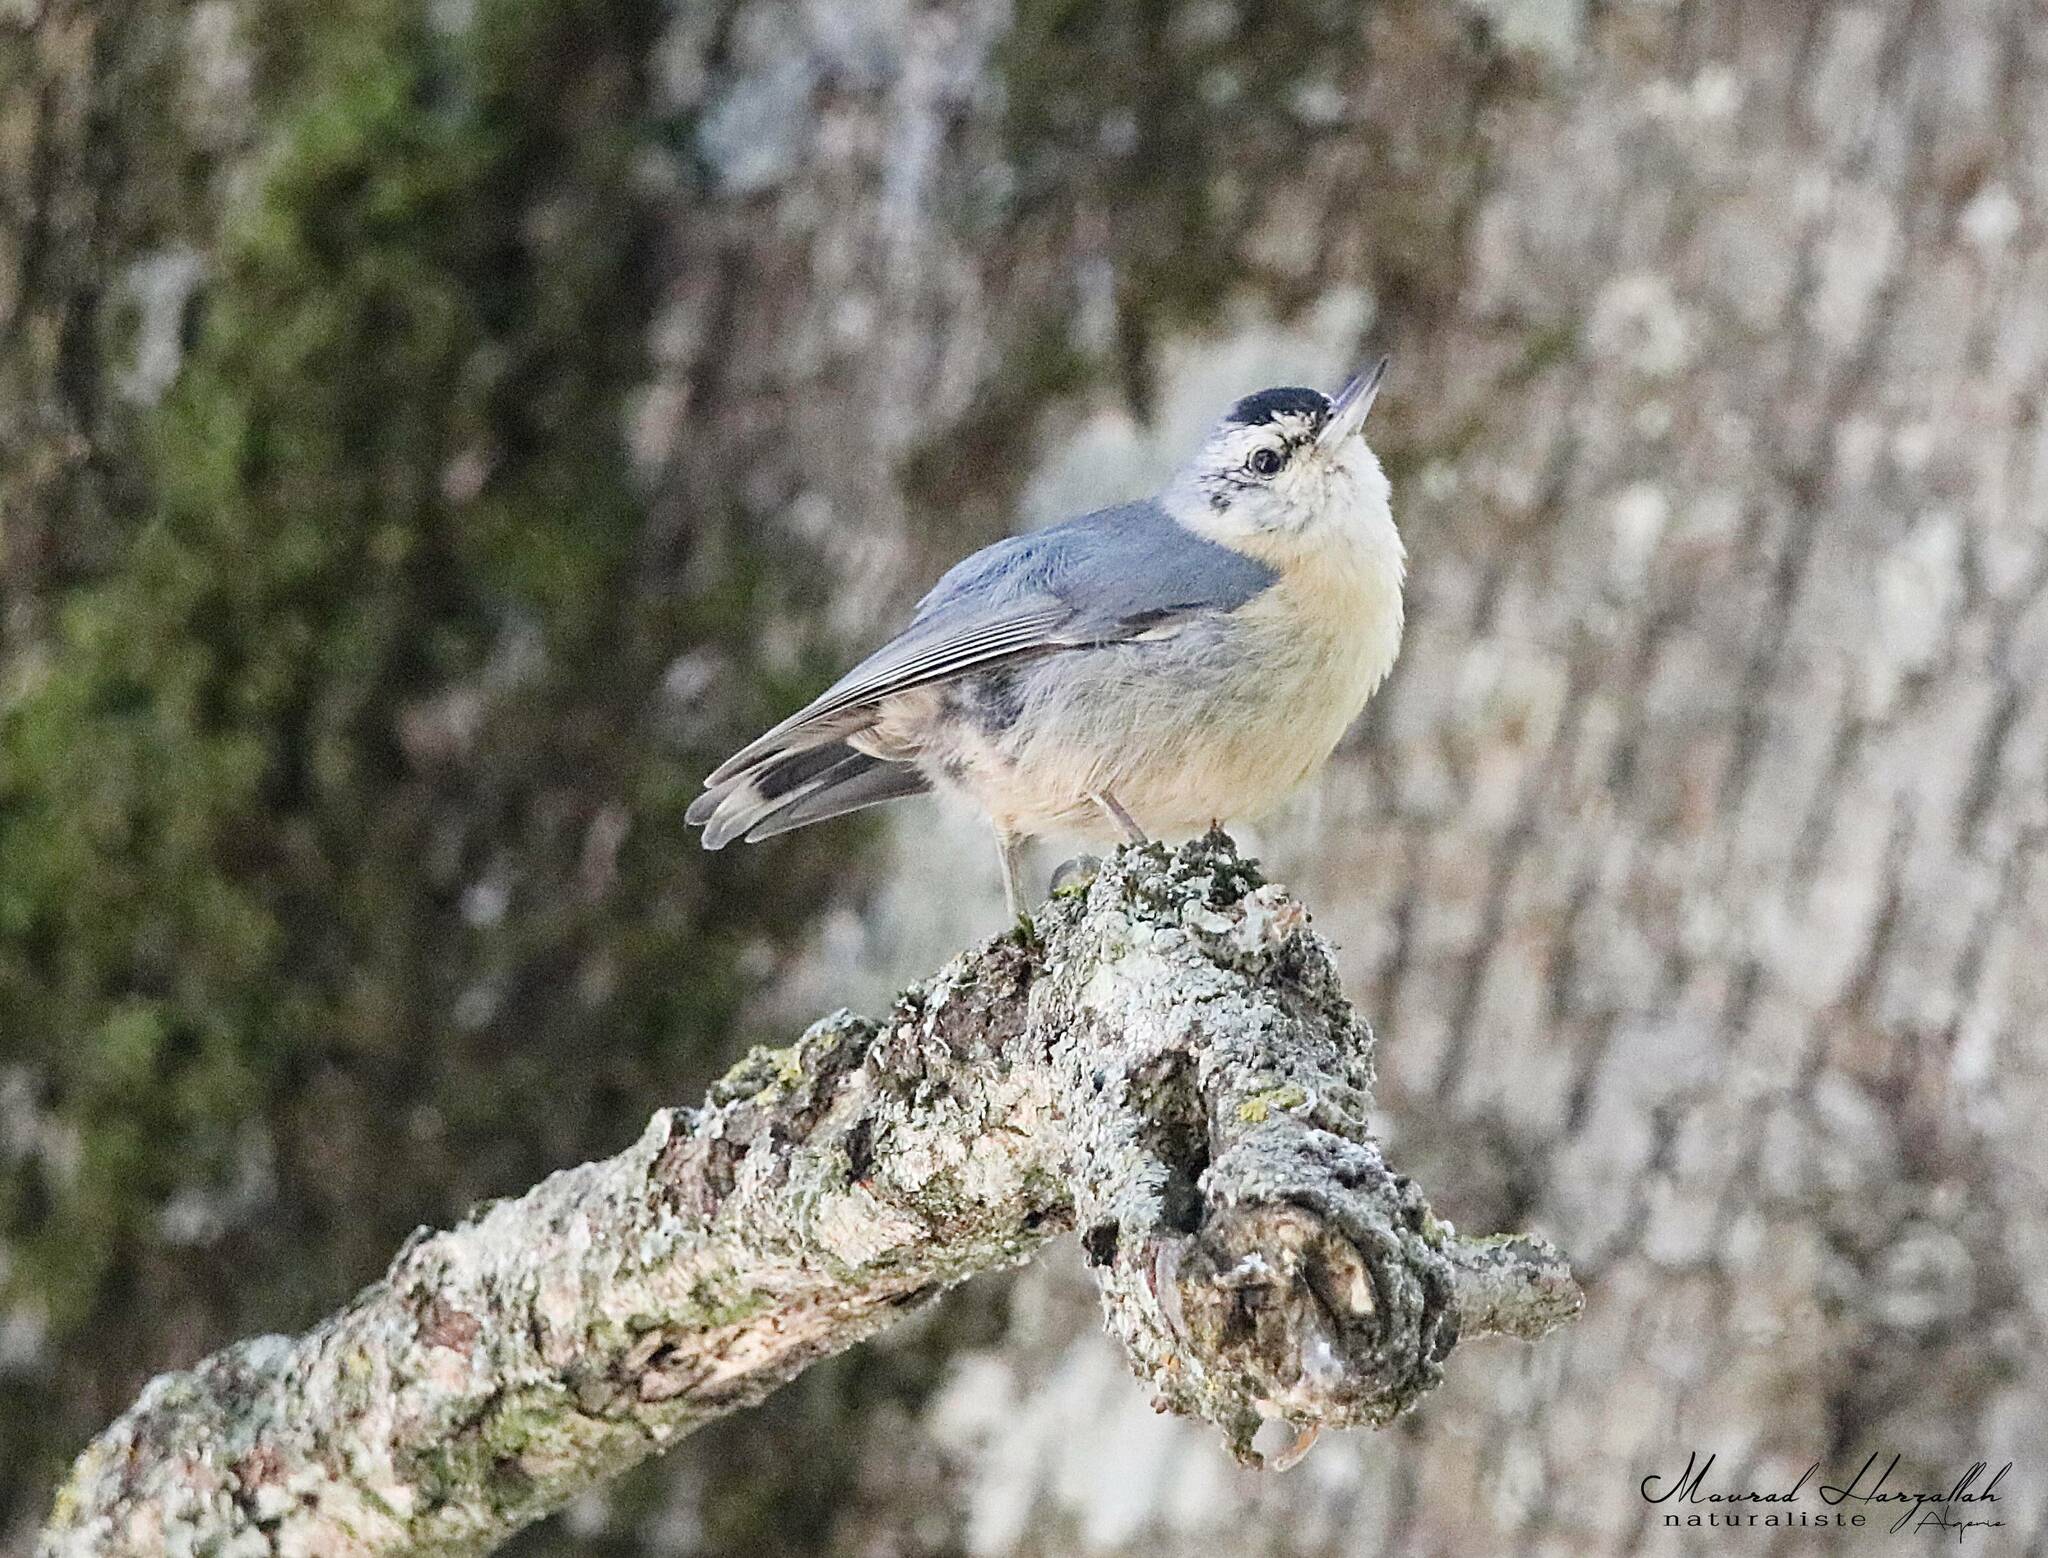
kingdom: Animalia
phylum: Chordata
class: Aves
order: Passeriformes
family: Sittidae
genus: Sitta
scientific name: Sitta ledanti
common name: Algerian nuthatch
